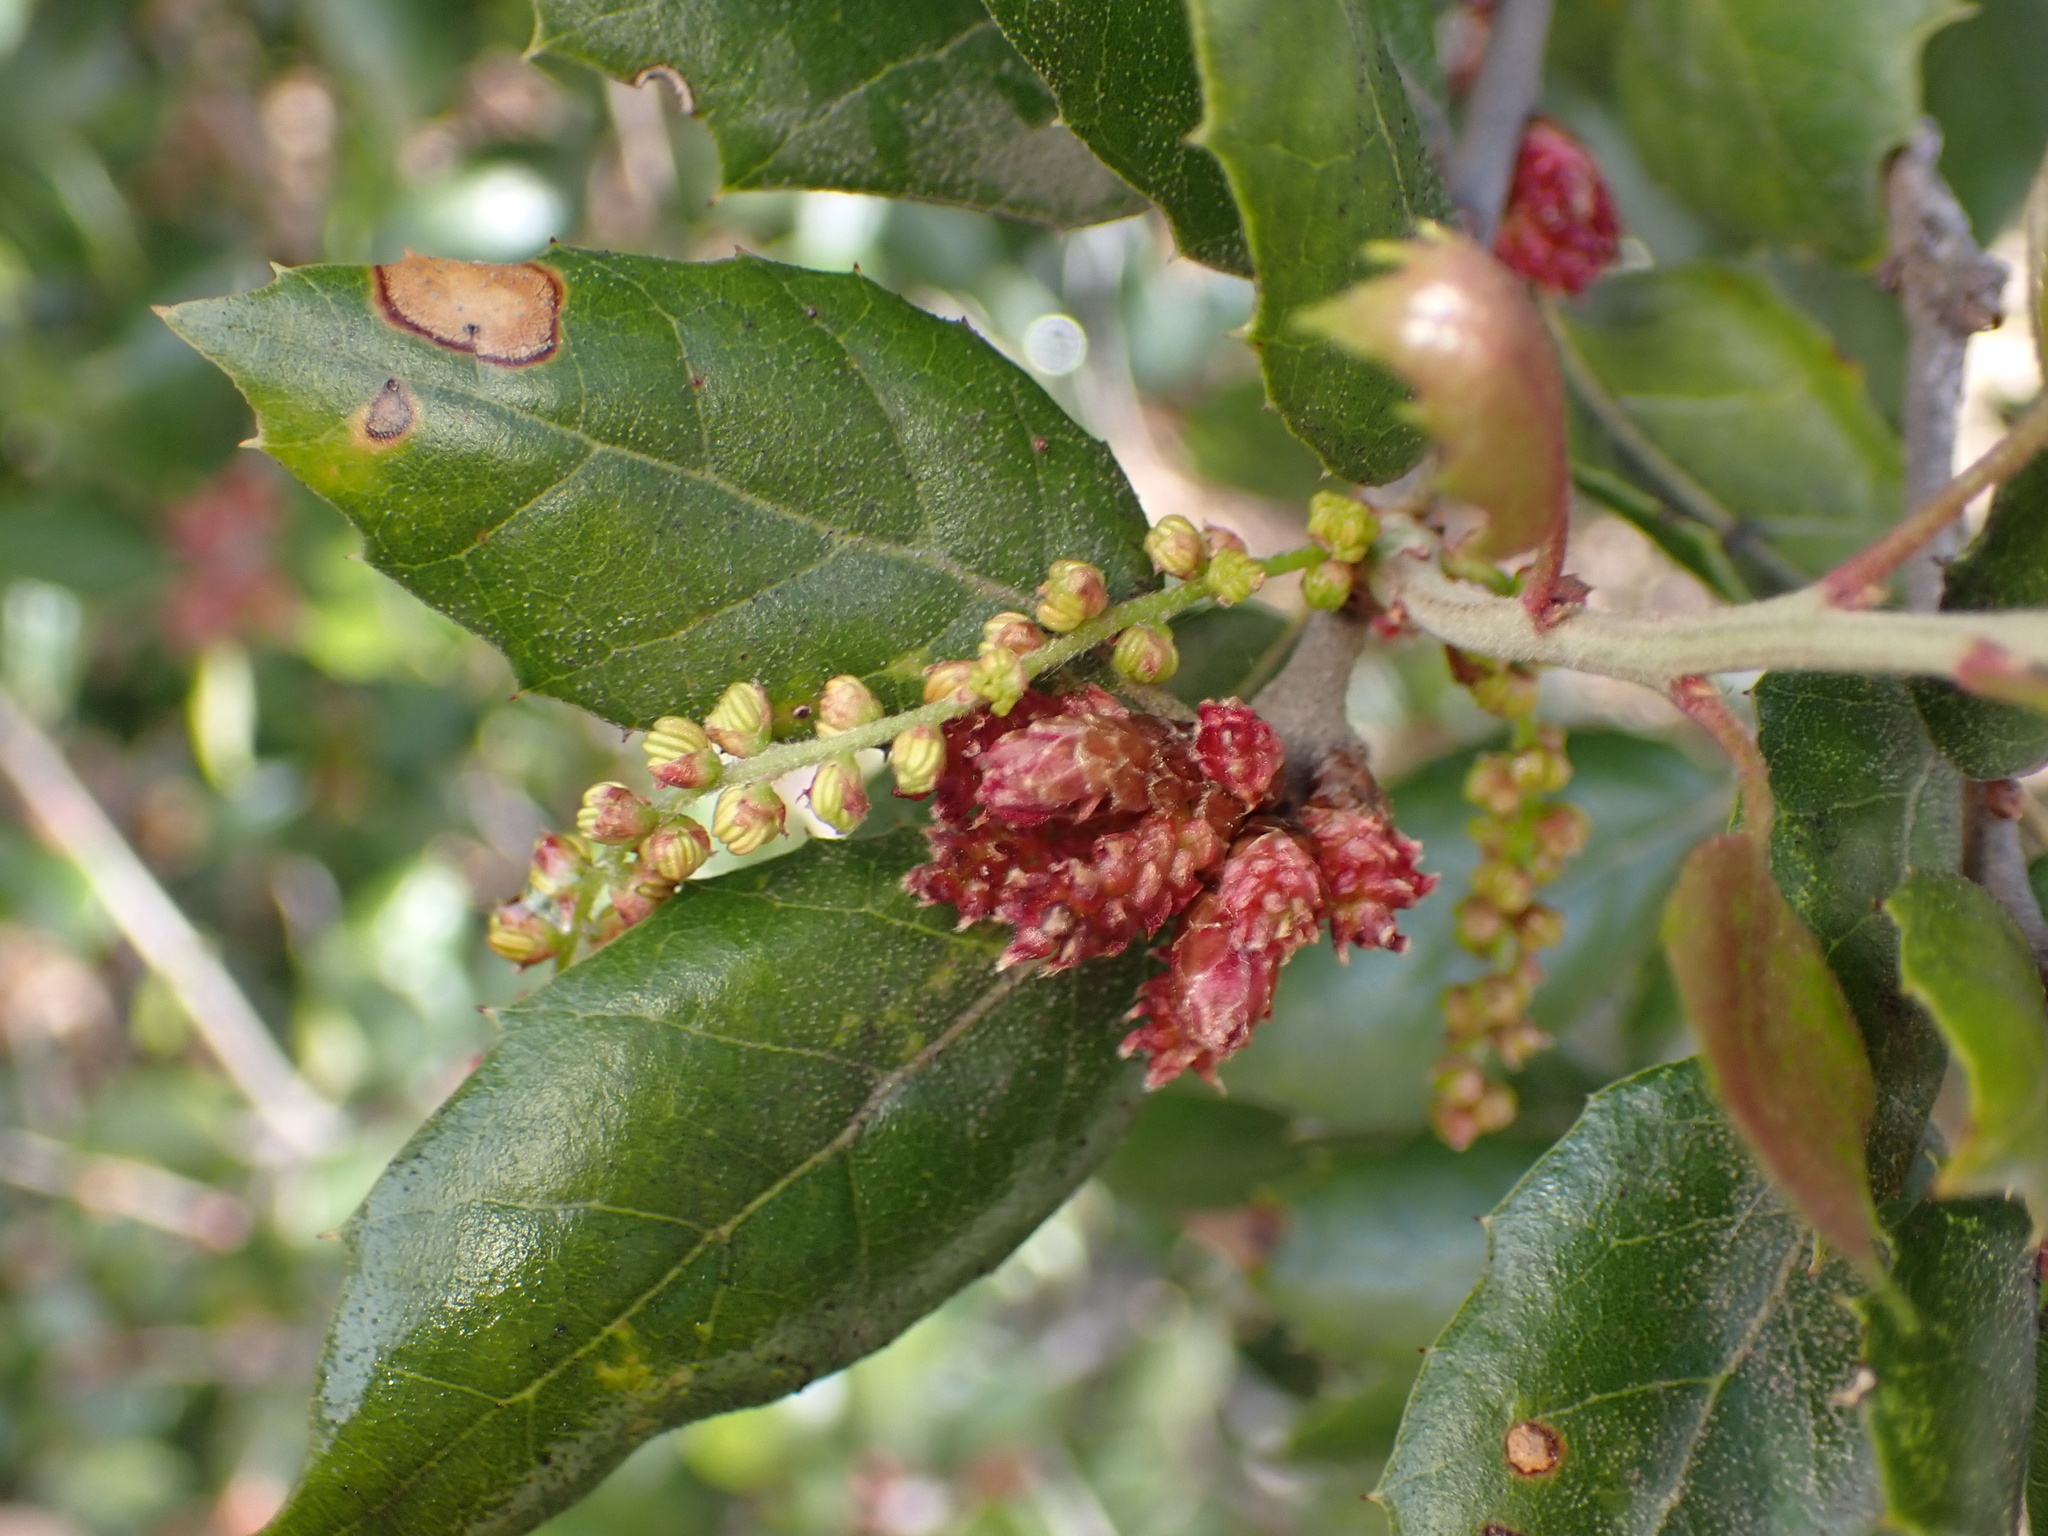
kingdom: Plantae
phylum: Tracheophyta
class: Magnoliopsida
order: Fagales
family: Fagaceae
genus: Quercus
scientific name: Quercus agrifolia
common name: California live oak
